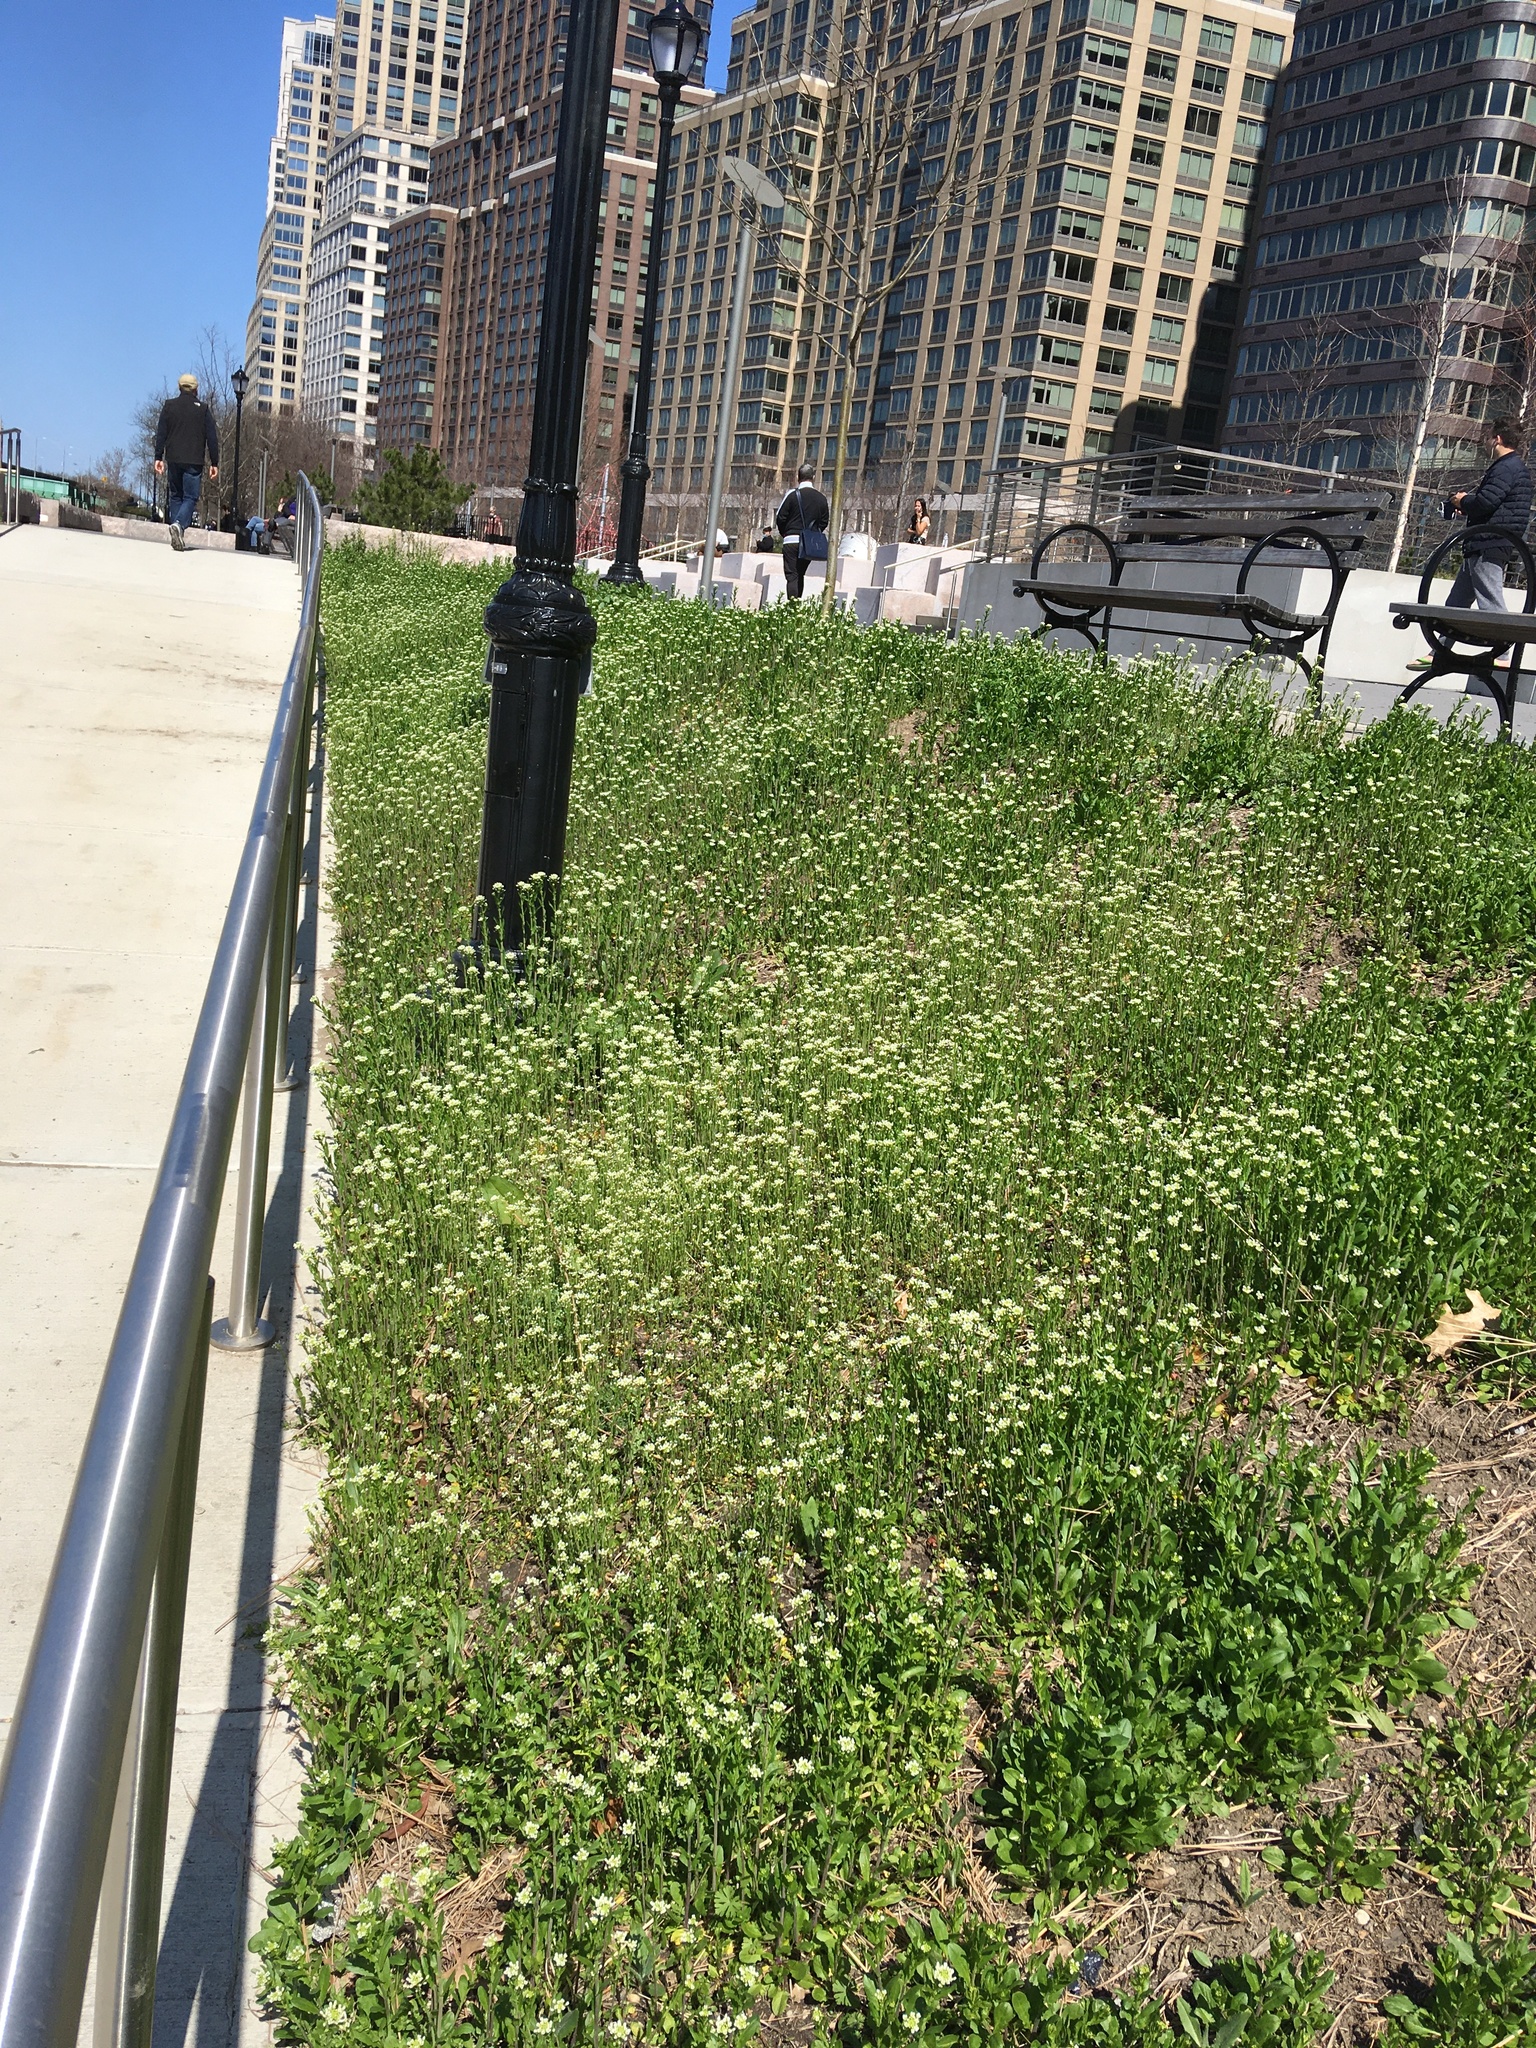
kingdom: Plantae
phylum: Tracheophyta
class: Magnoliopsida
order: Brassicales
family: Brassicaceae
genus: Mummenhoffia
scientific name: Mummenhoffia alliacea
